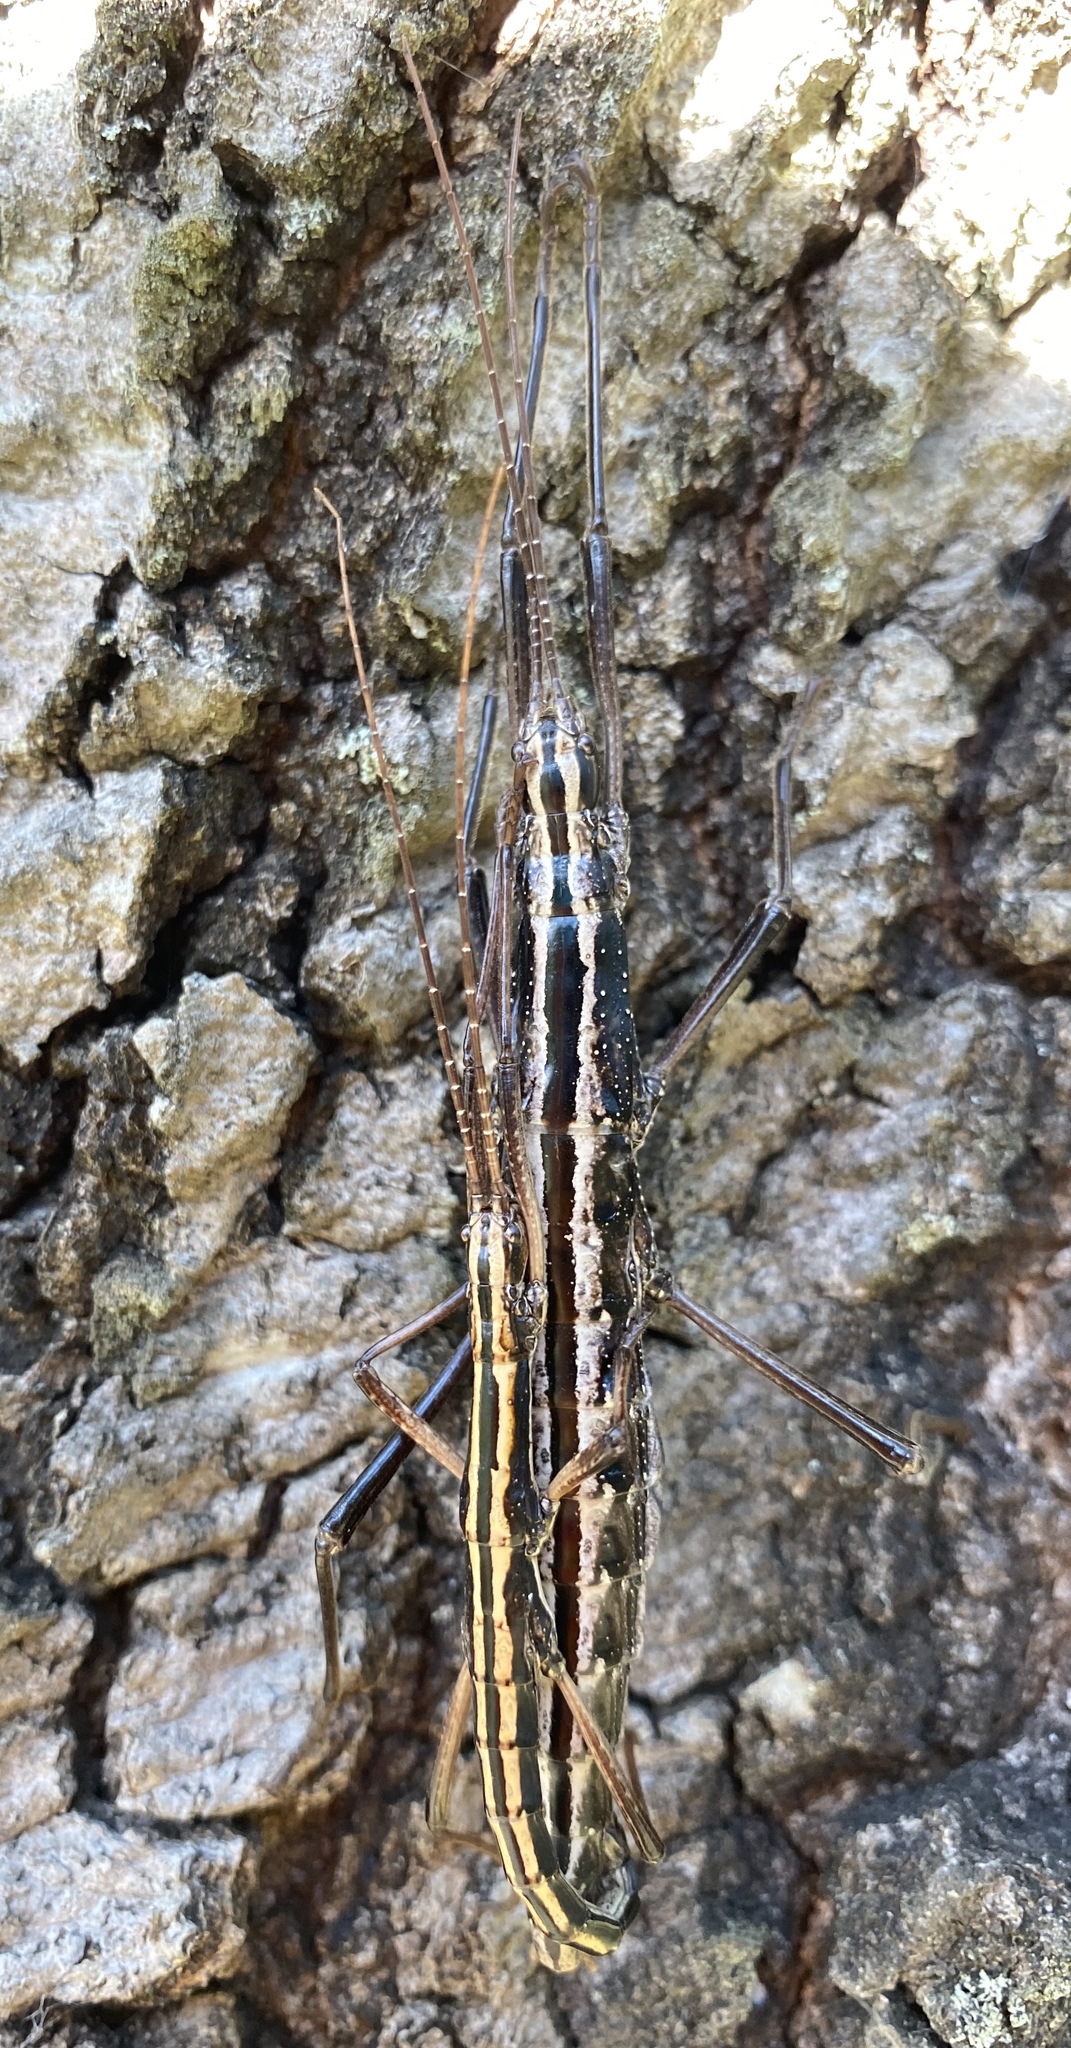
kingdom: Animalia
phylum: Arthropoda
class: Insecta
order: Phasmida
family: Pseudophasmatidae
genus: Anisomorpha
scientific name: Anisomorpha buprestoides
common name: Florida stick insect
